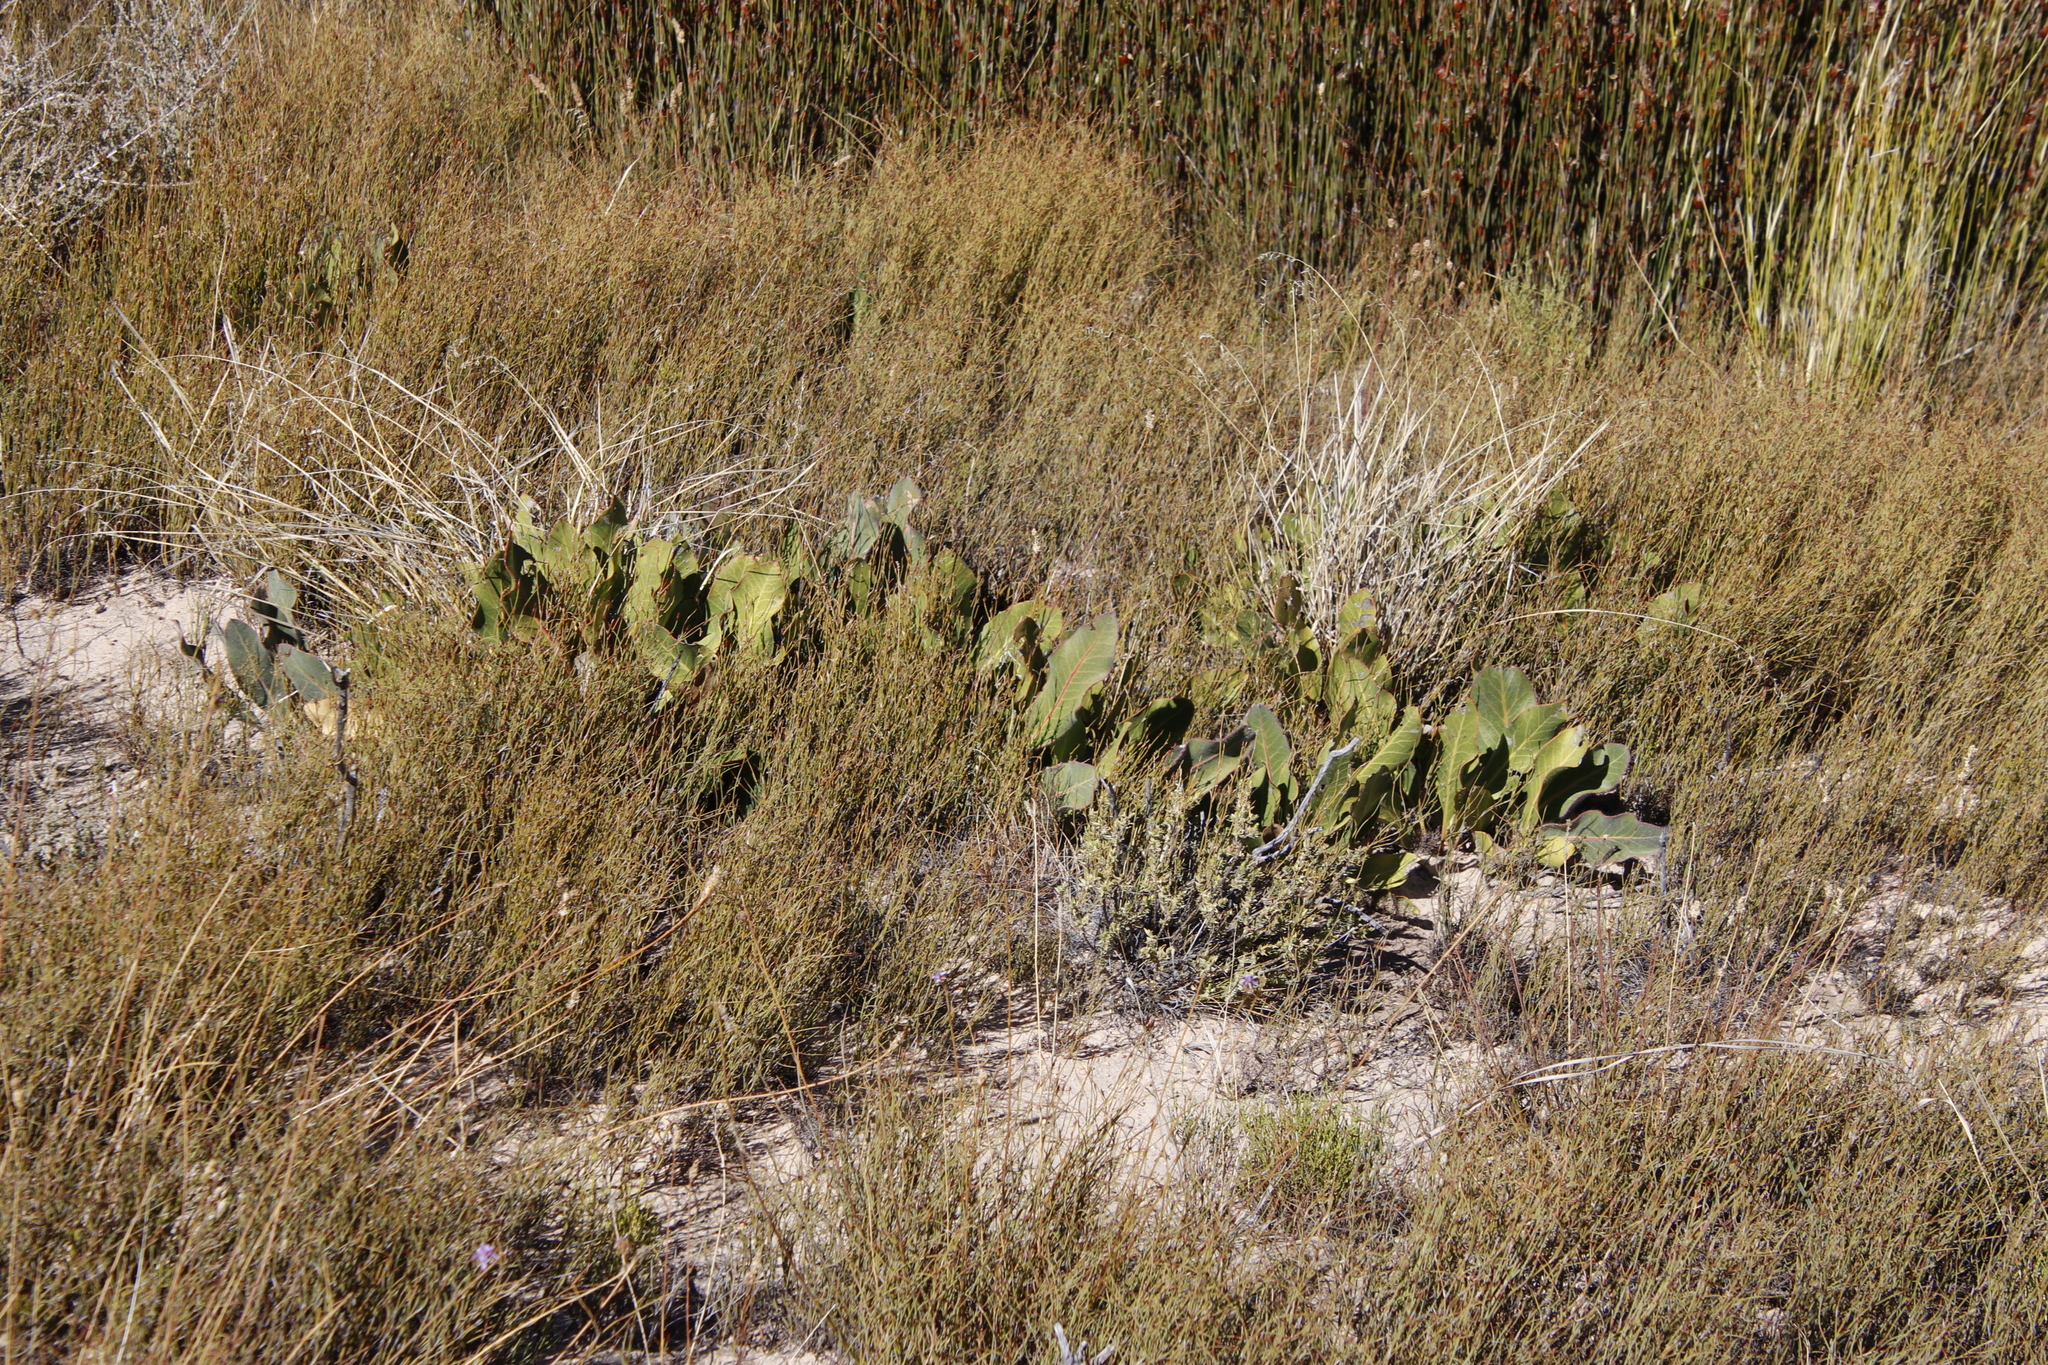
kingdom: Plantae
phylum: Tracheophyta
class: Magnoliopsida
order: Proteales
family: Proteaceae
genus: Protea
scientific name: Protea scolopendriifolia
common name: Harts-tongue-fern sugarbush
